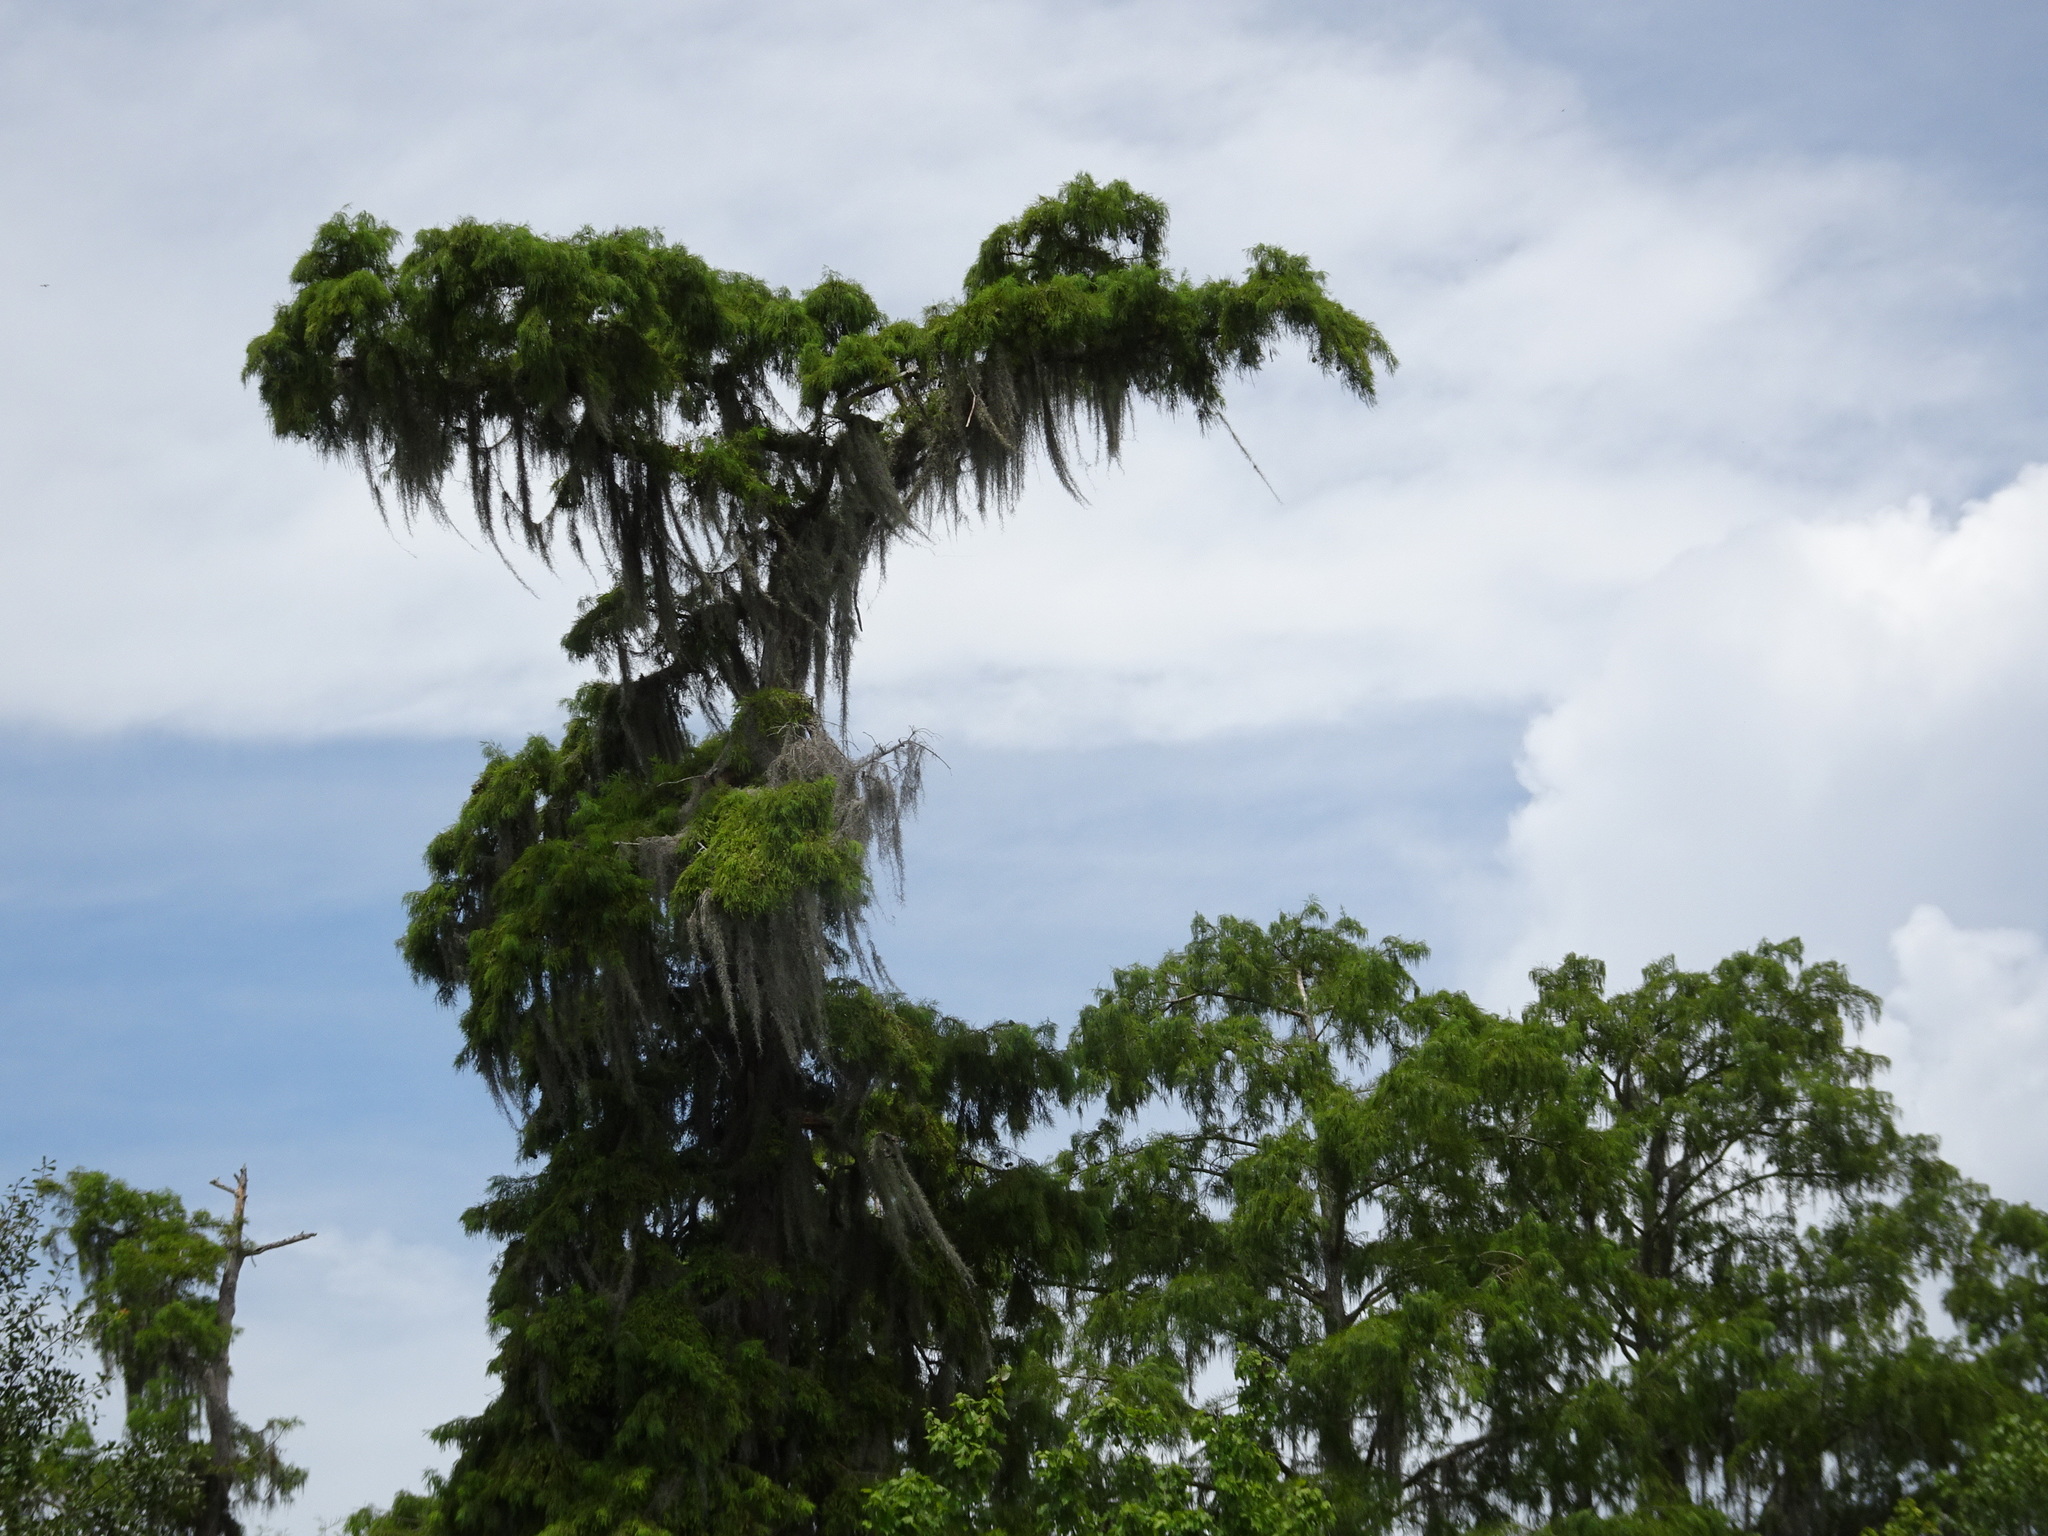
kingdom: Plantae
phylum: Tracheophyta
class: Pinopsida
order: Pinales
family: Cupressaceae
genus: Taxodium
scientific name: Taxodium distichum
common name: Bald cypress
